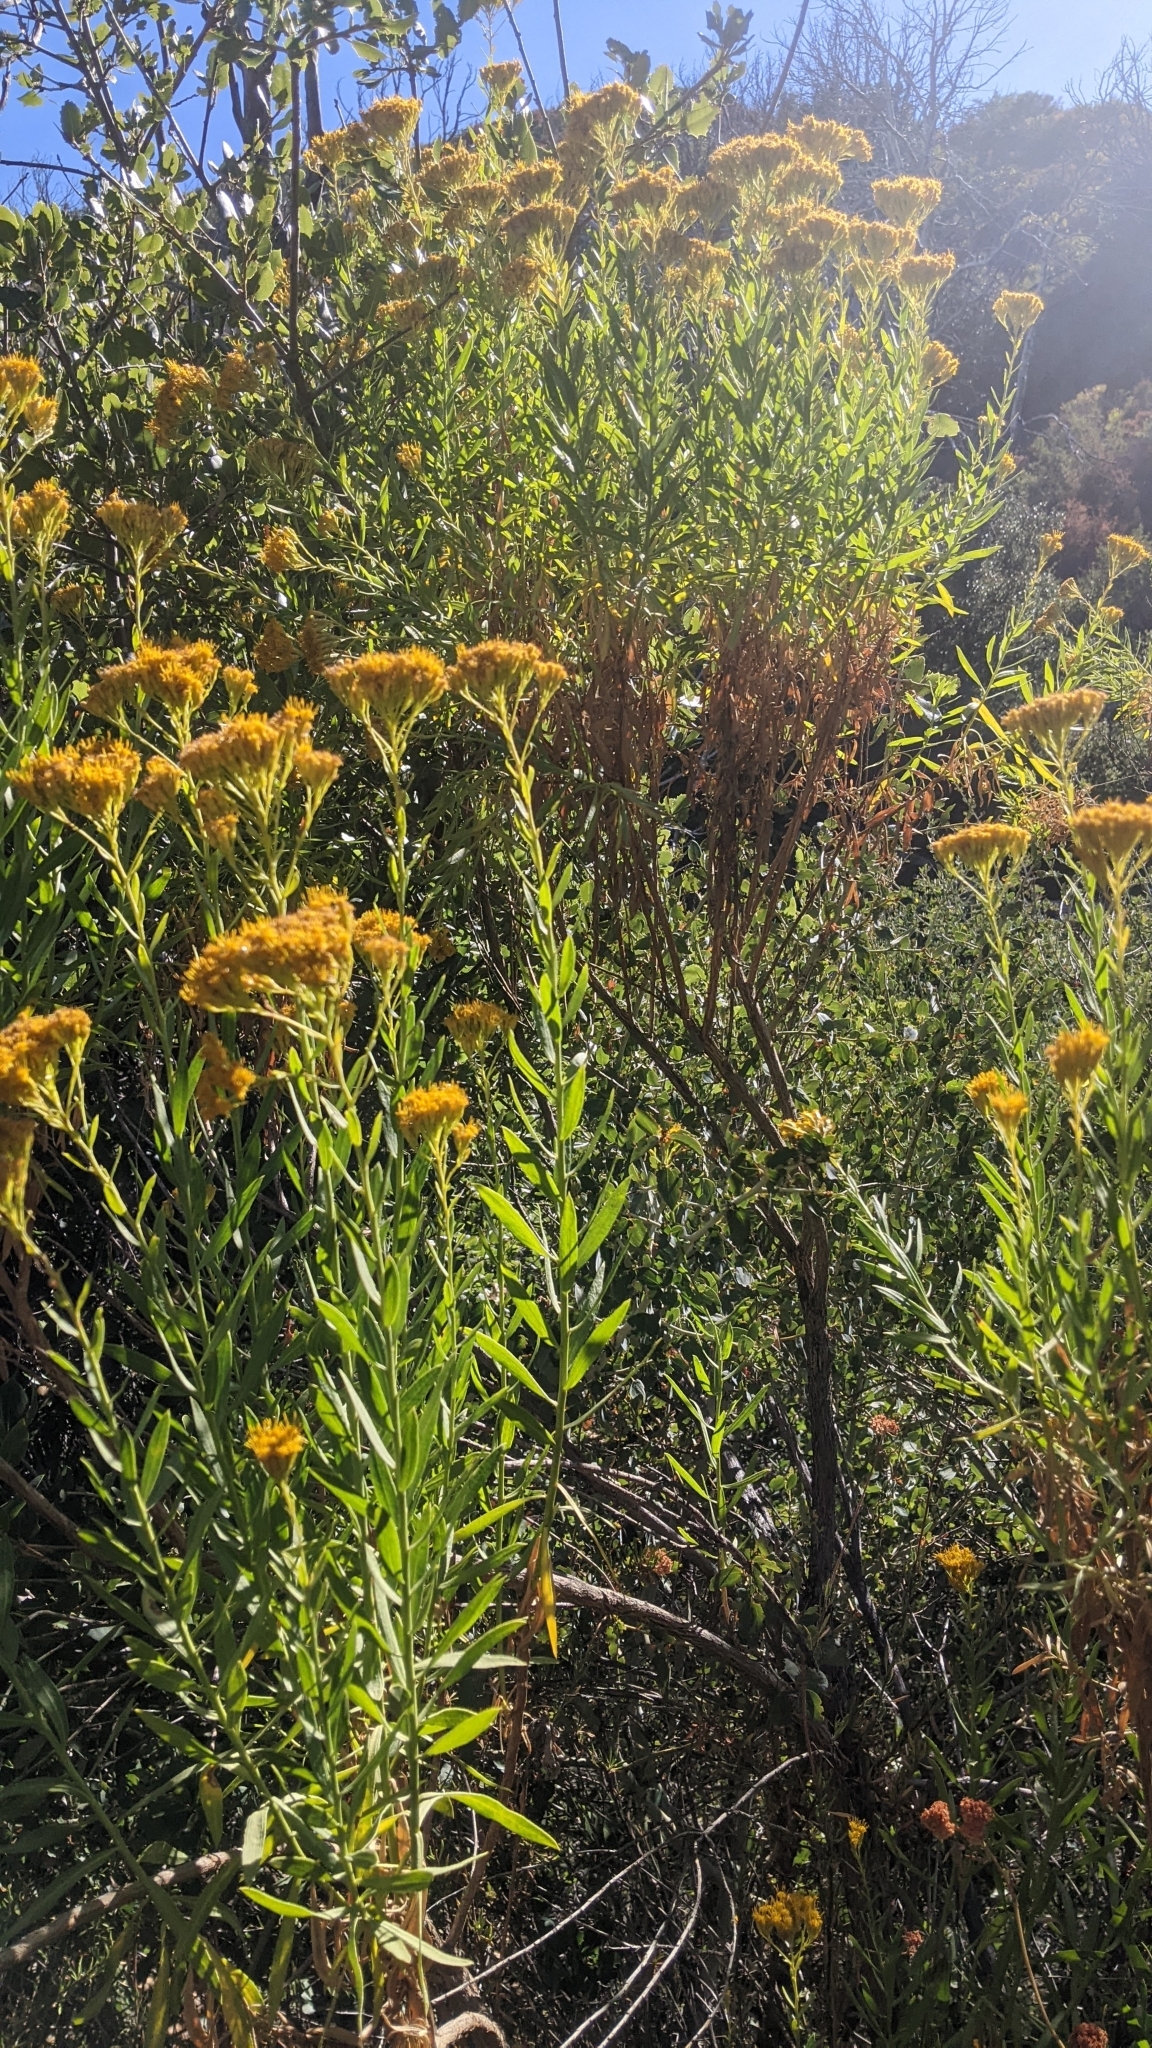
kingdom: Plantae
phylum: Tracheophyta
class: Magnoliopsida
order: Asterales
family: Asteraceae
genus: Ericameria
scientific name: Ericameria parishii
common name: Parish's goldenbush
